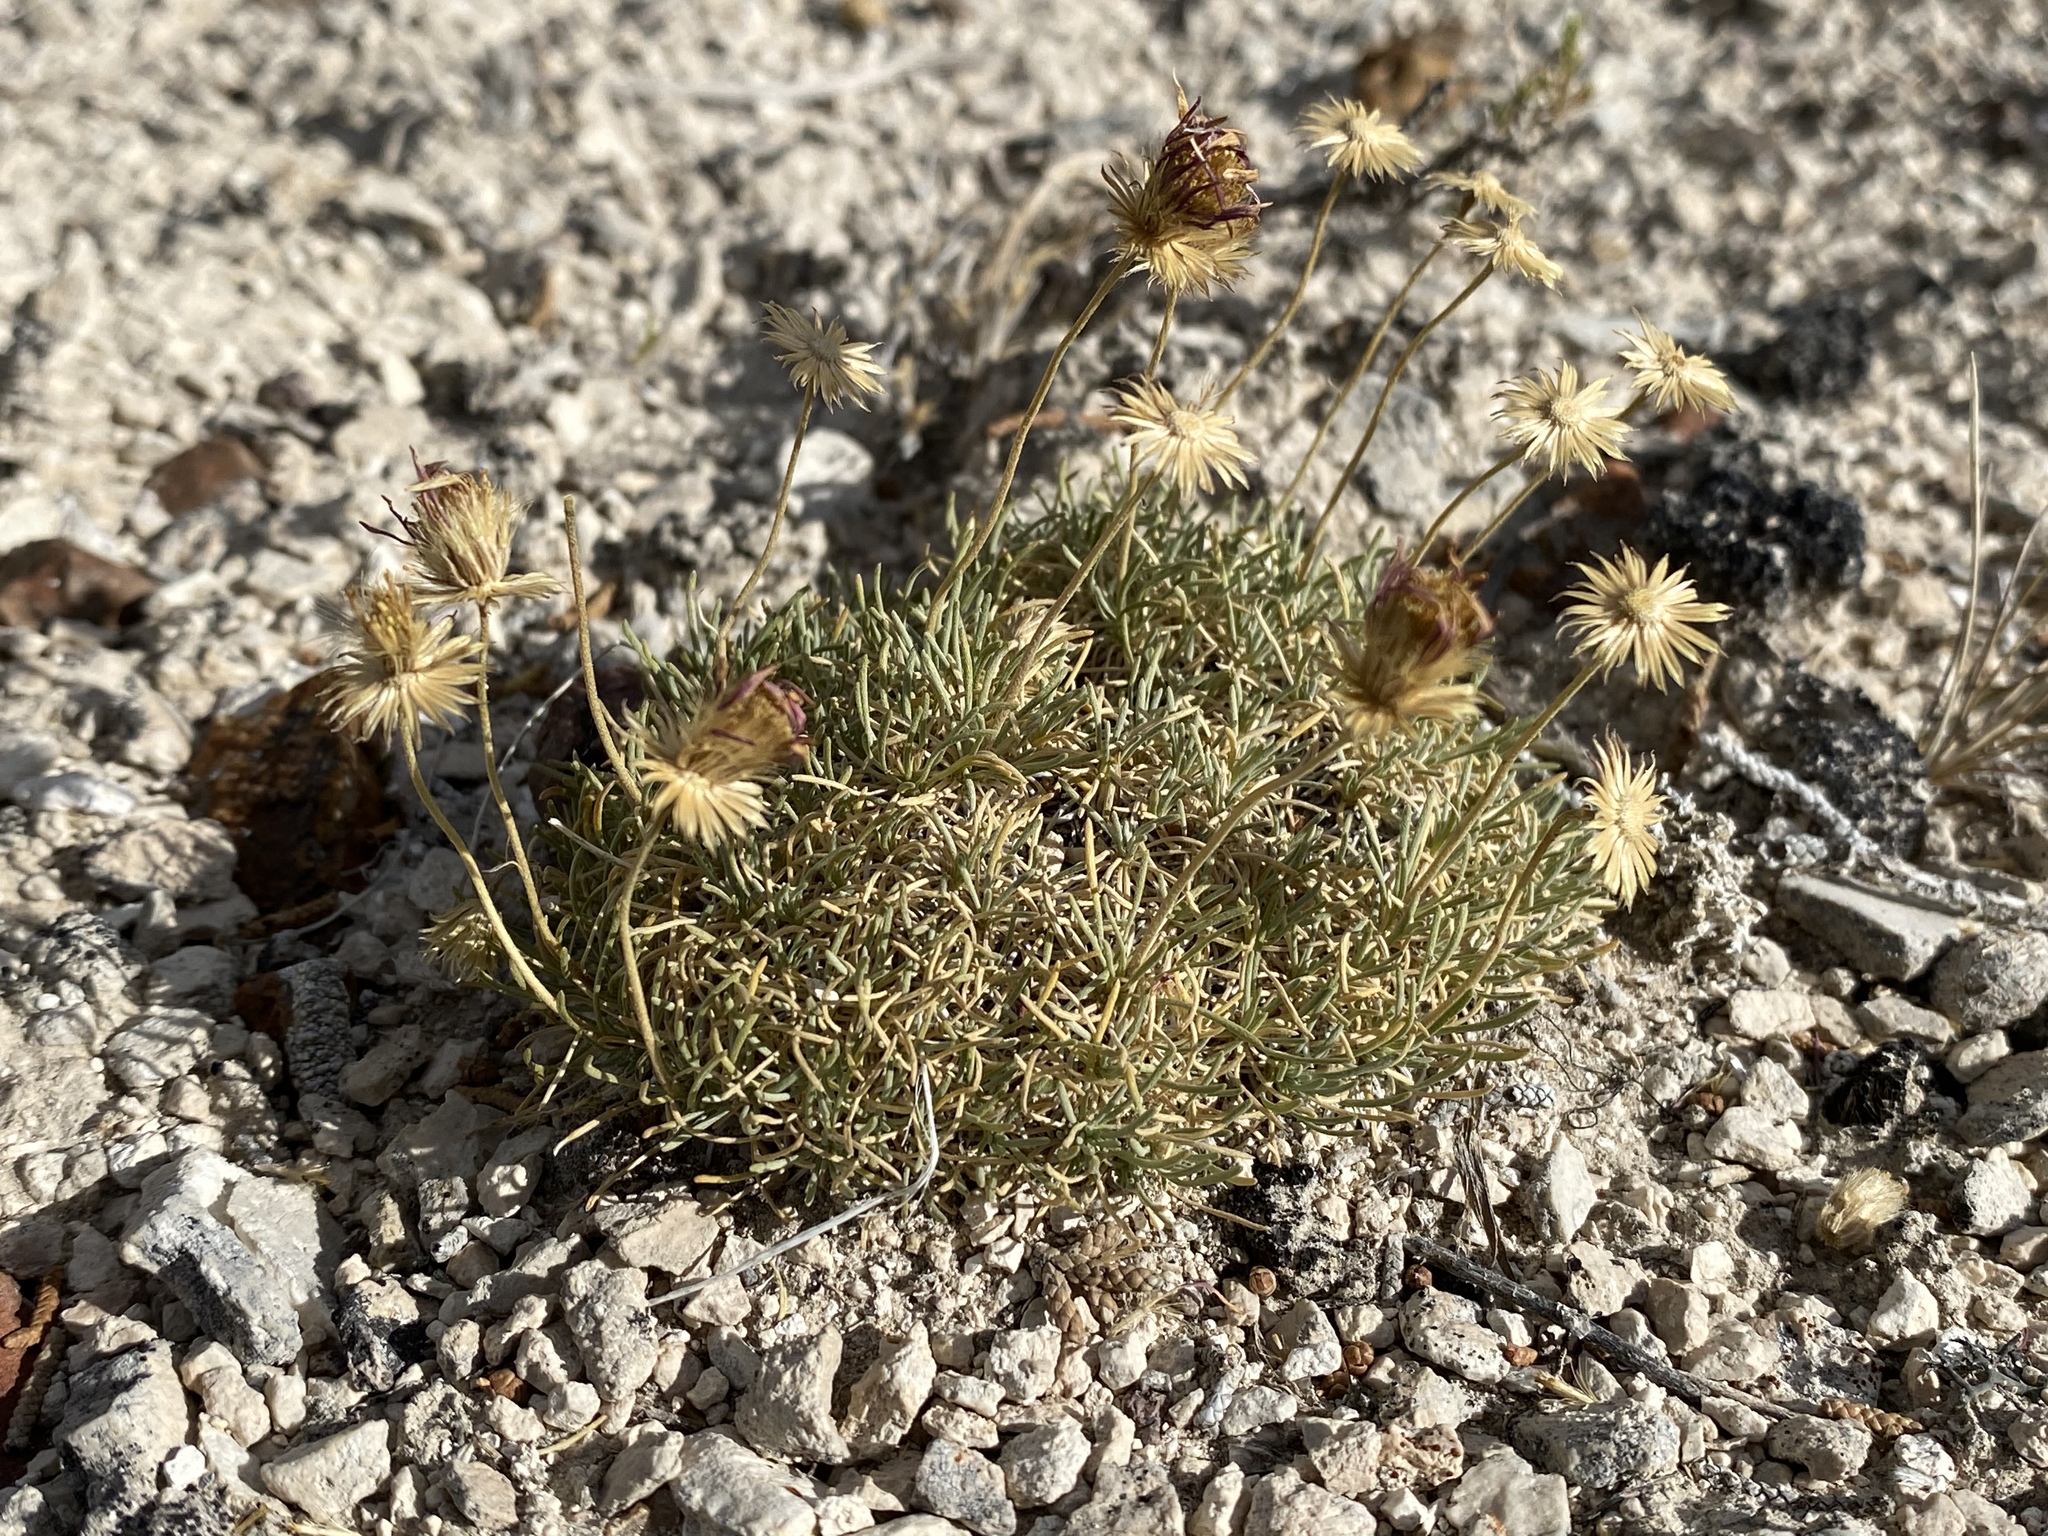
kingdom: Plantae
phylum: Tracheophyta
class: Magnoliopsida
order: Asterales
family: Asteraceae
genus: Erigeron
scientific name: Erigeron compactus
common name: Fern-leaf fleabane
